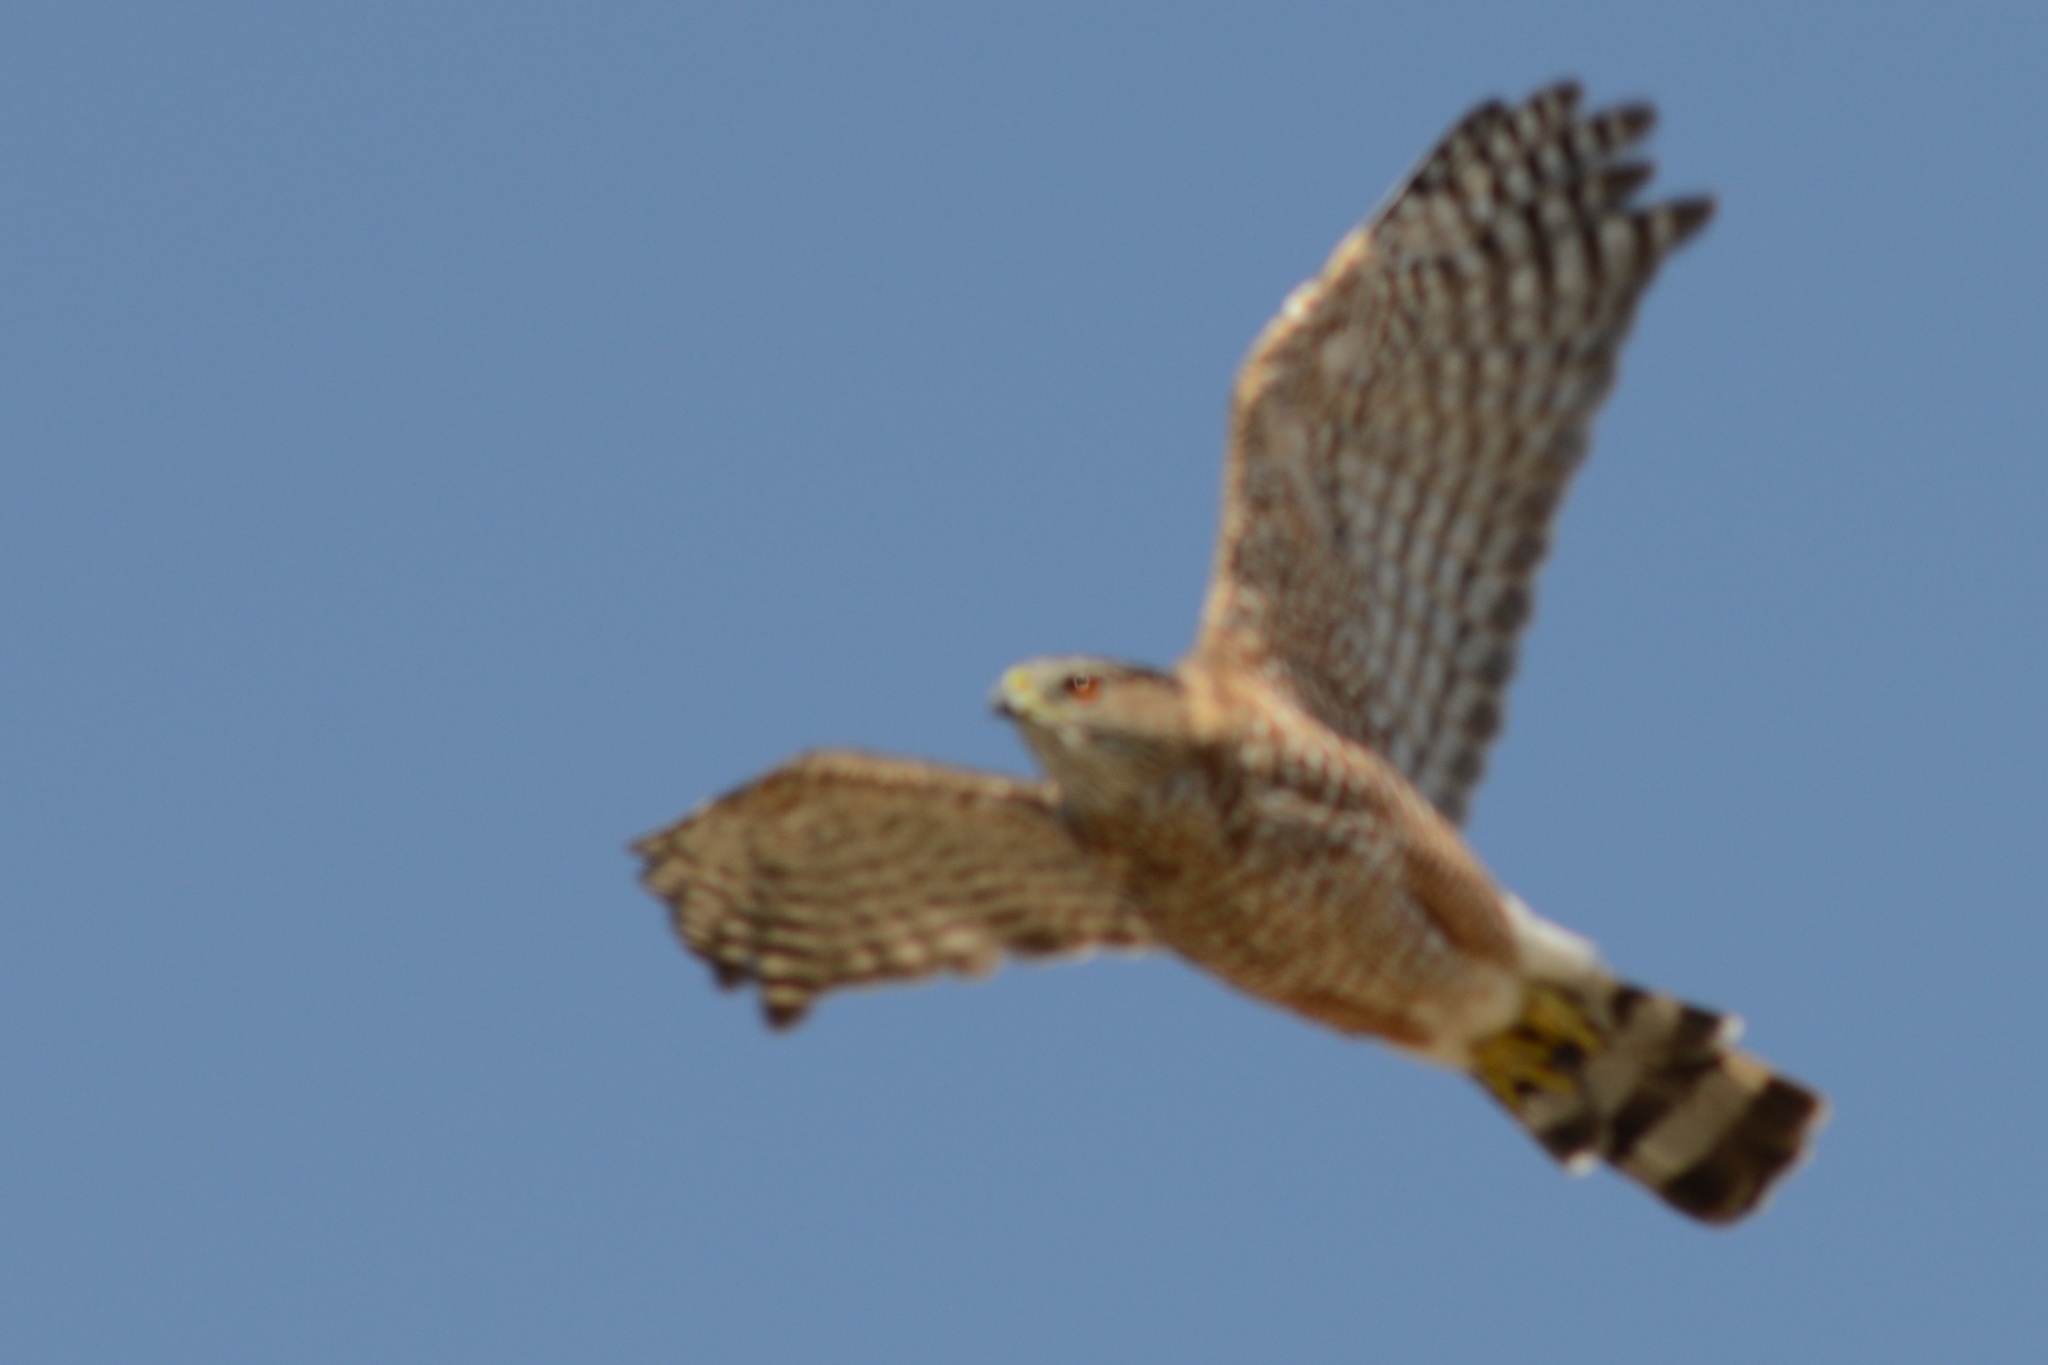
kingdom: Animalia
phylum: Chordata
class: Aves
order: Accipitriformes
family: Accipitridae
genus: Accipiter
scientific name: Accipiter cooperii
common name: Cooper's hawk
